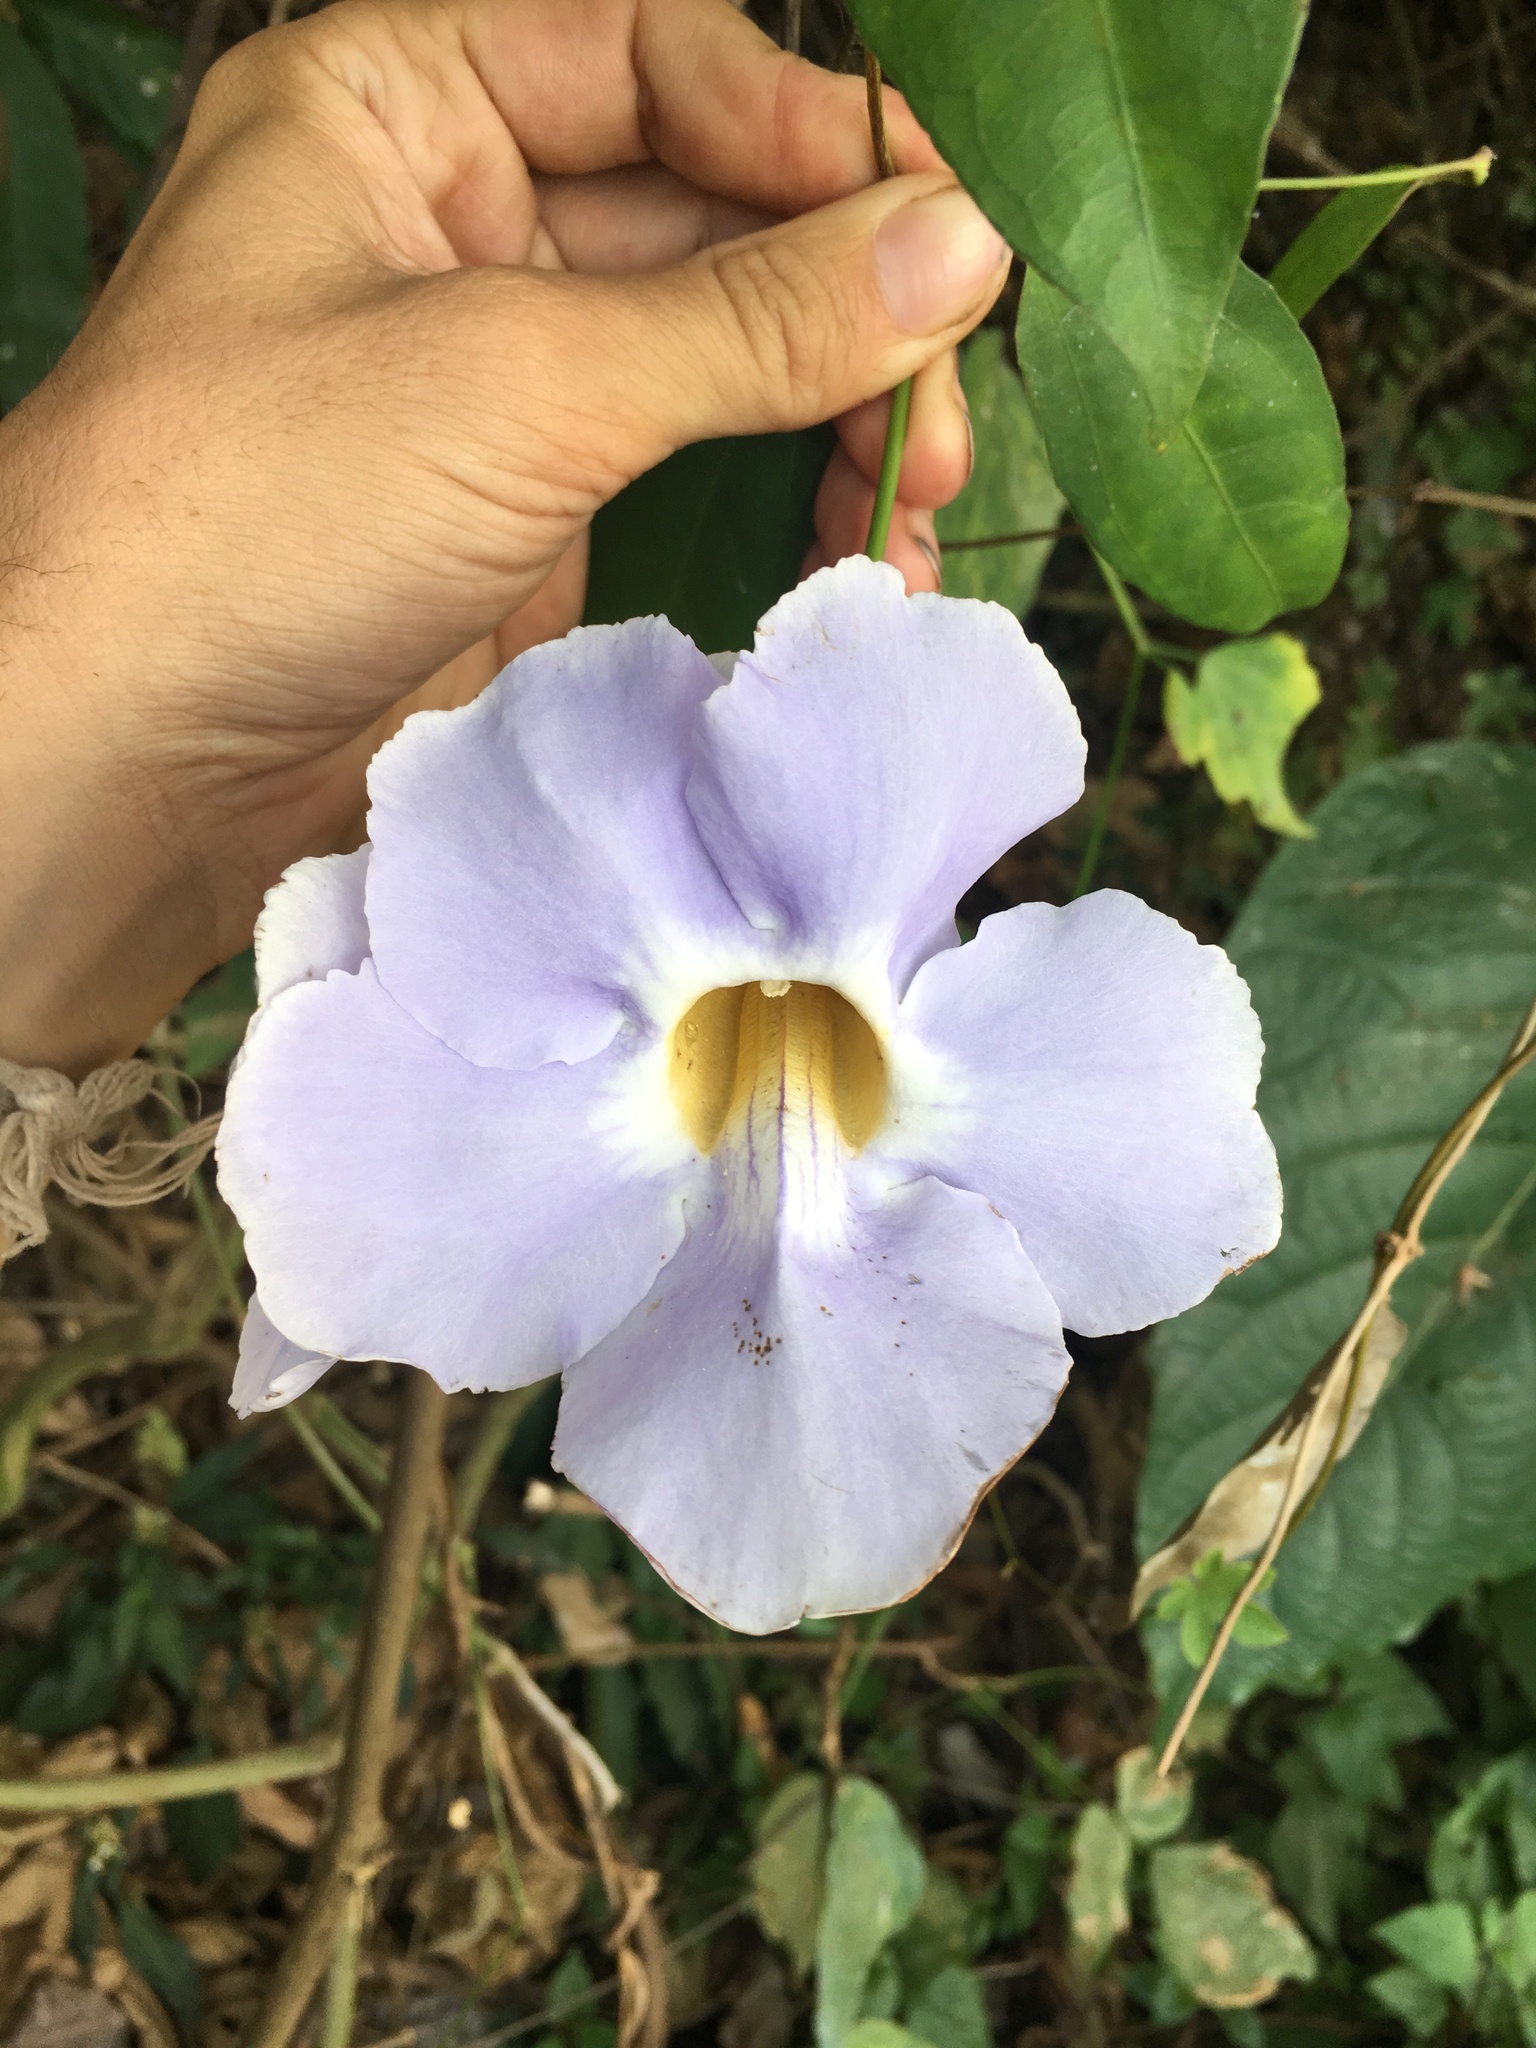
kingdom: Plantae
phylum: Tracheophyta
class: Magnoliopsida
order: Lamiales
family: Acanthaceae
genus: Thunbergia
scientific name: Thunbergia laurifolia
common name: Laurel-leaved thunbergia
